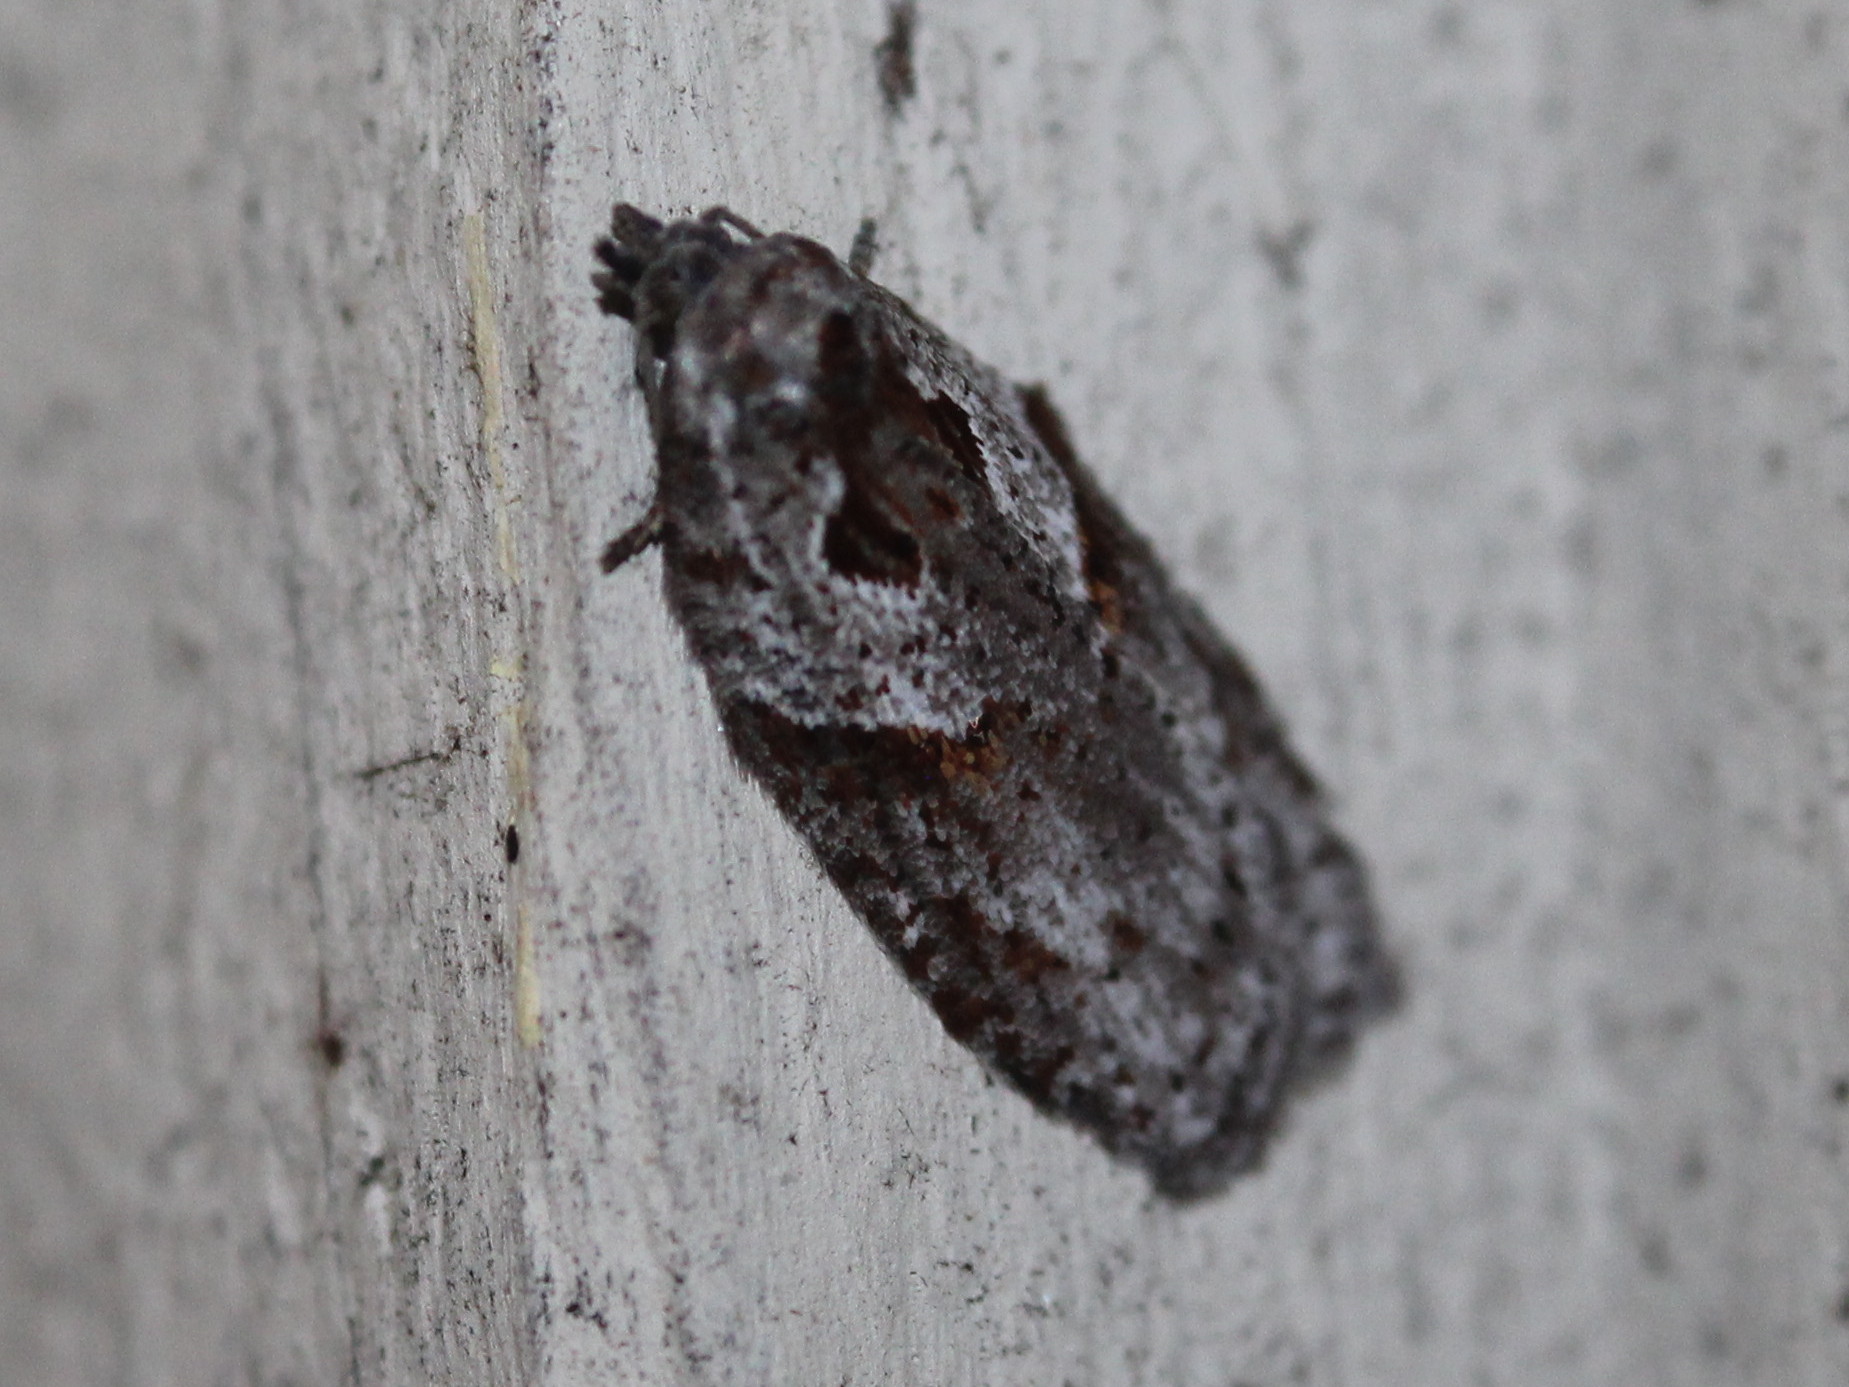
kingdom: Animalia
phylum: Arthropoda
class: Insecta
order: Lepidoptera
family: Tortricidae
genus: Acleris
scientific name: Acleris maculidorsana
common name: Stained-back leafroller moth
